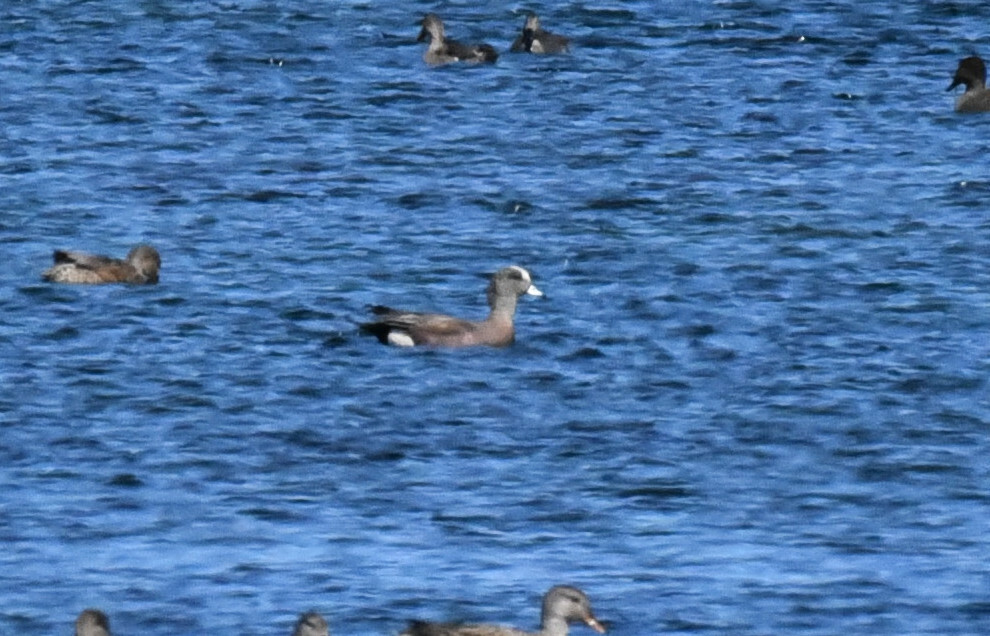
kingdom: Animalia
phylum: Chordata
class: Aves
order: Anseriformes
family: Anatidae
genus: Mareca
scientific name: Mareca americana
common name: American wigeon
